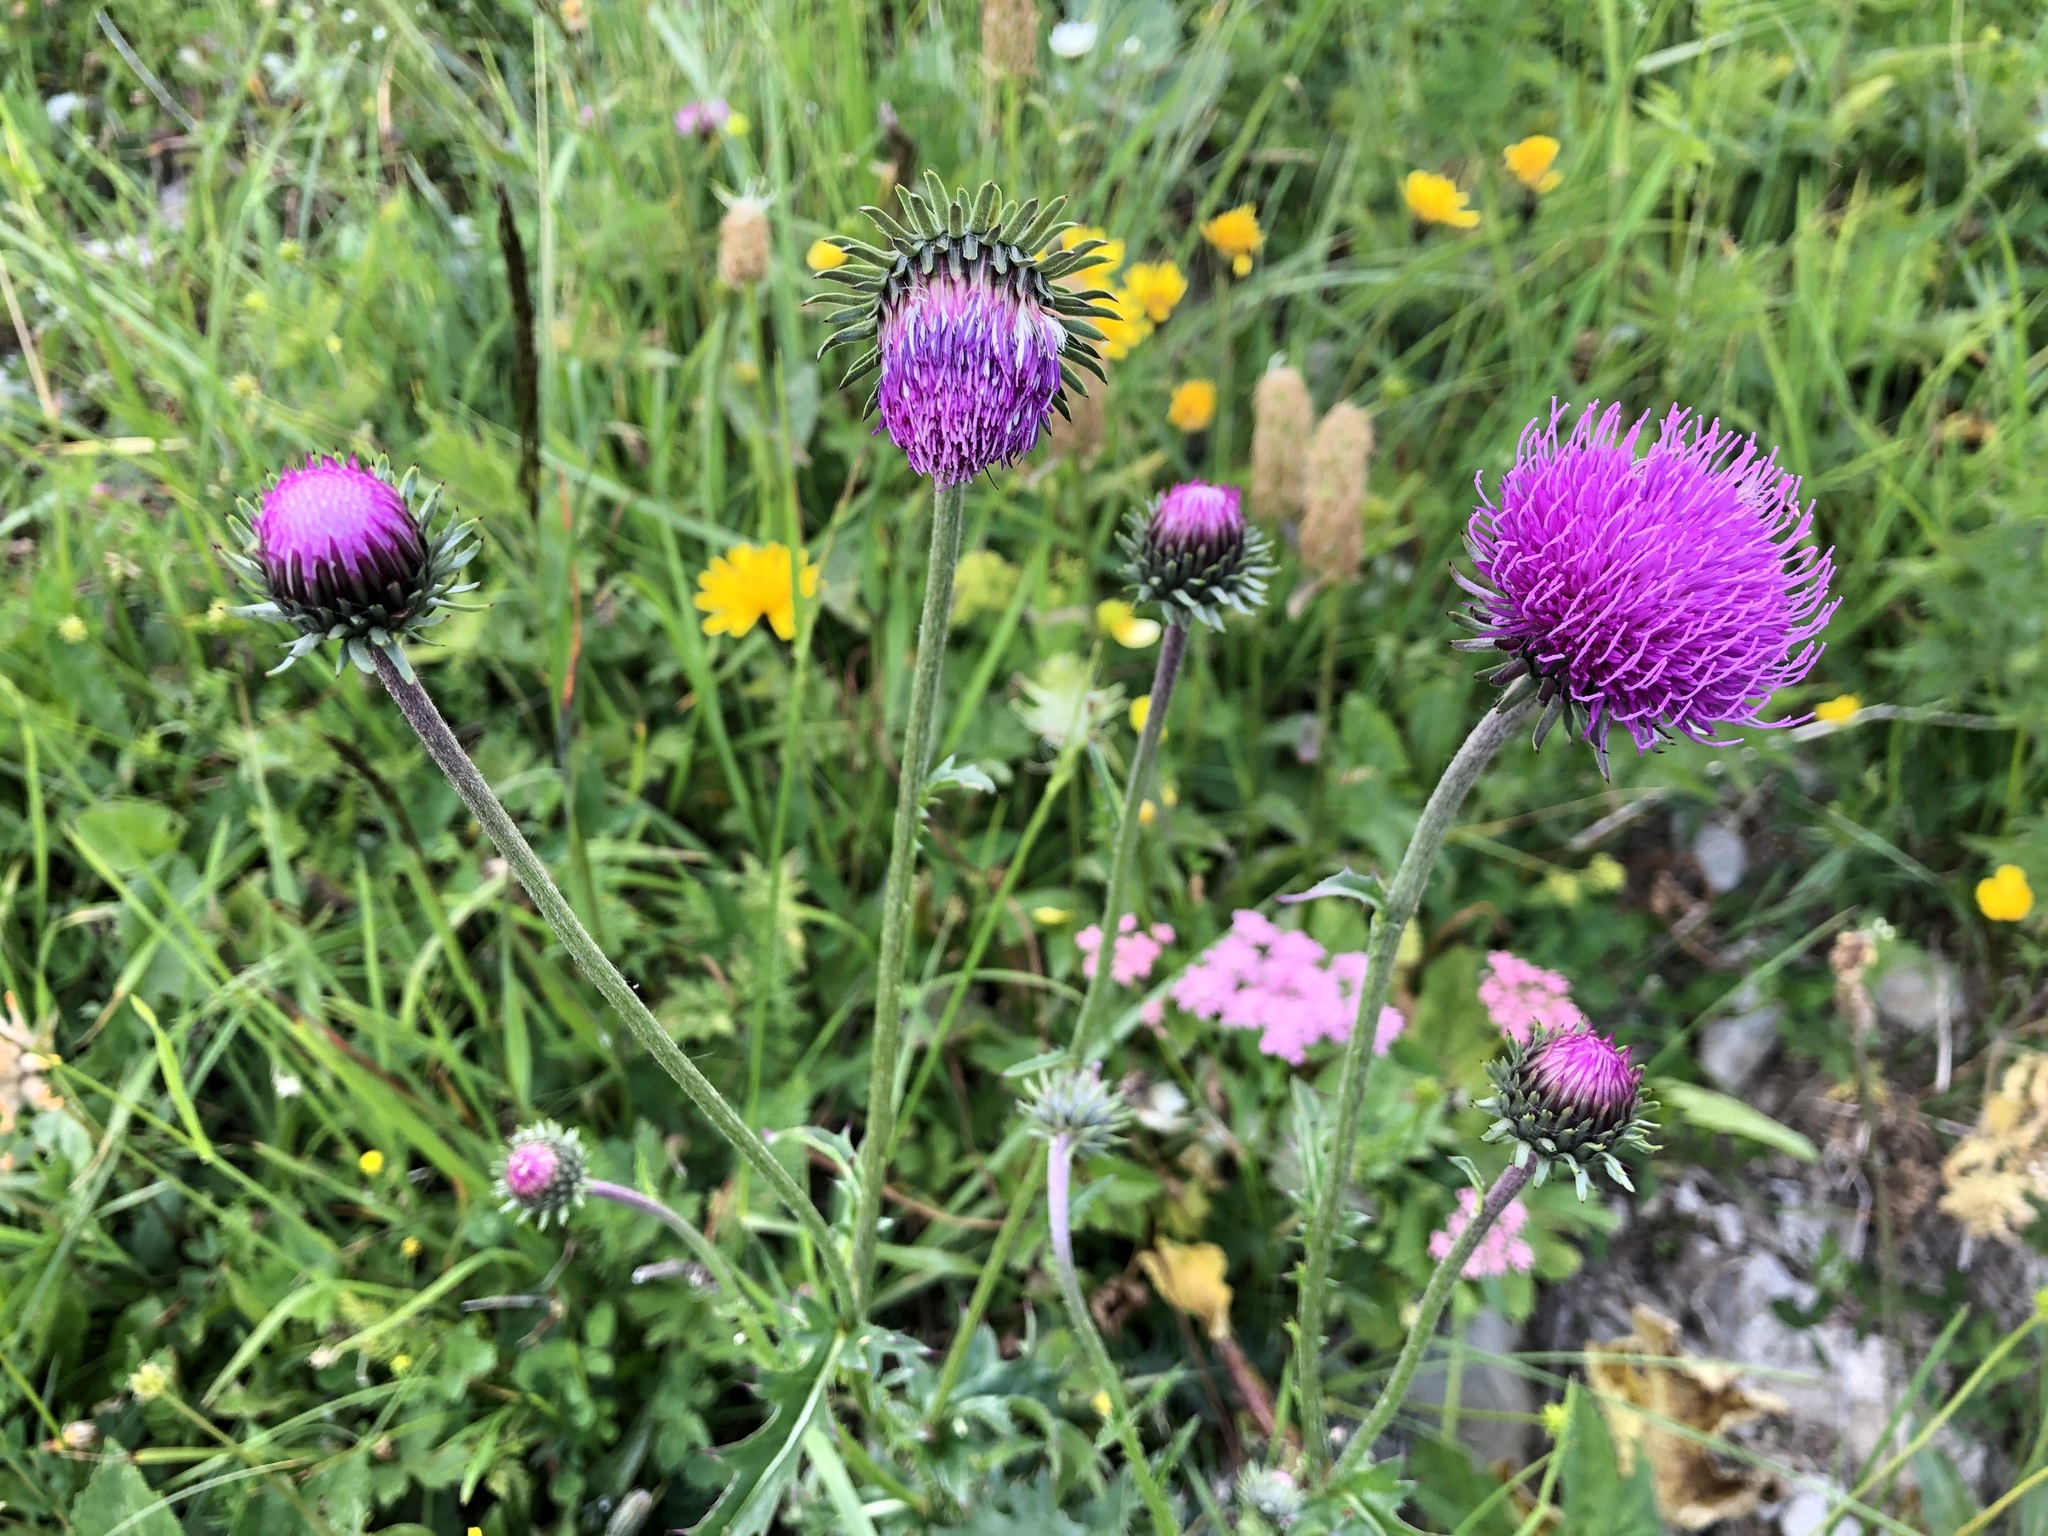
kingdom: Plantae
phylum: Tracheophyta
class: Magnoliopsida
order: Asterales
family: Asteraceae
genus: Carduus
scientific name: Carduus defloratus
